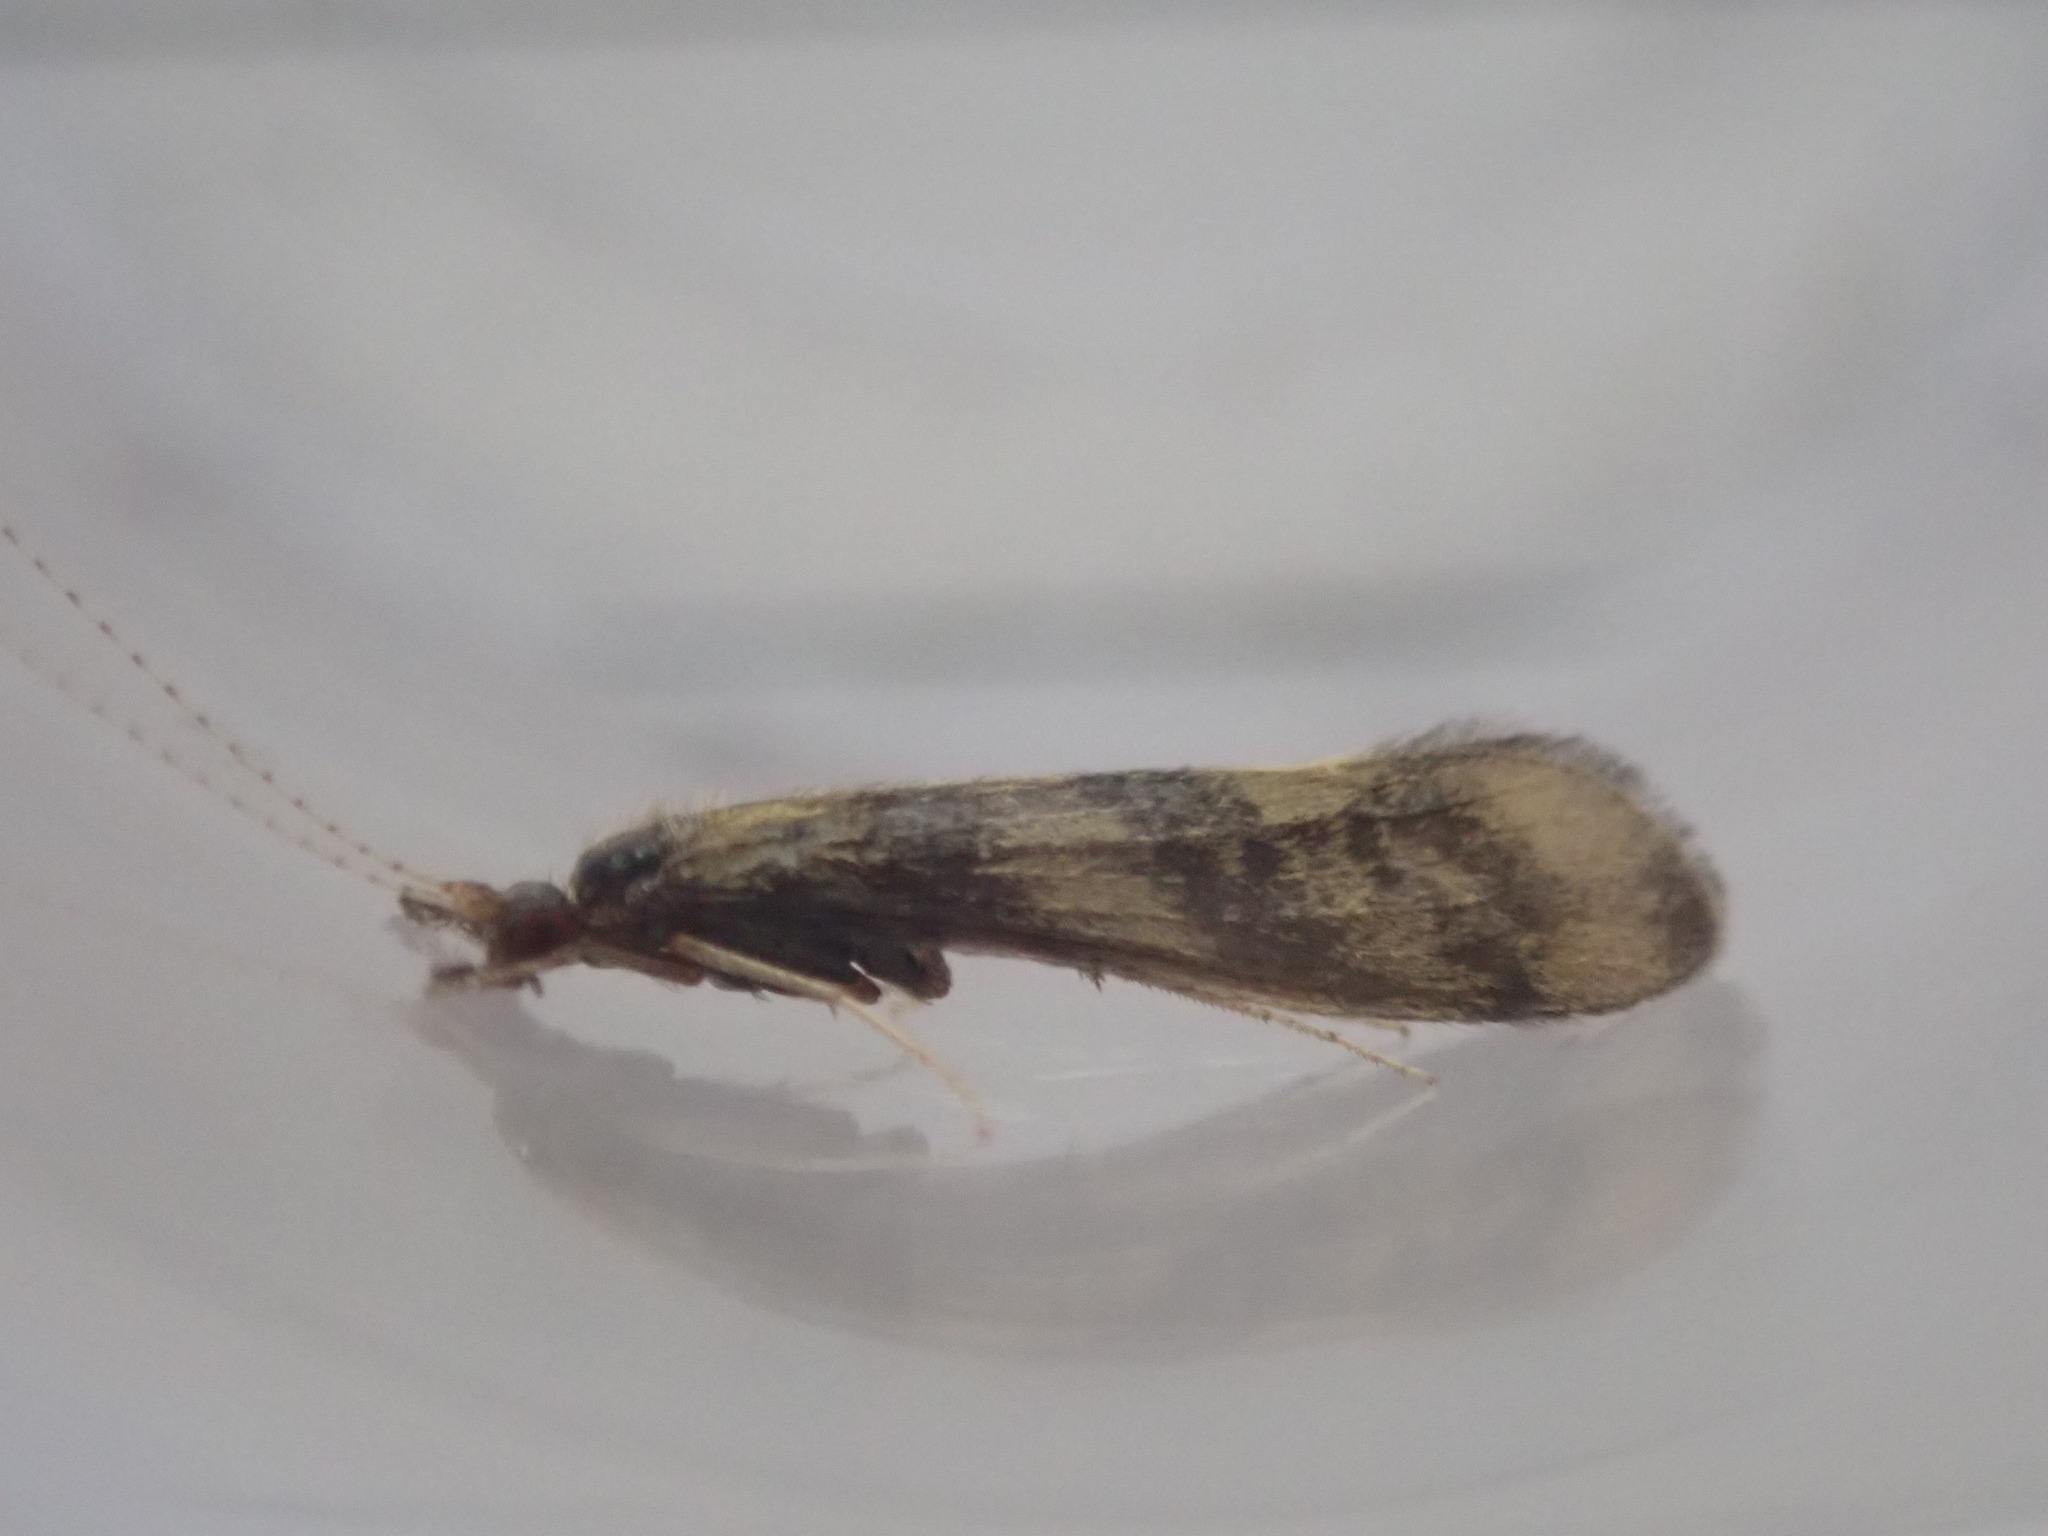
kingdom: Animalia
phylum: Arthropoda
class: Insecta
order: Trichoptera
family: Leptoceridae
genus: Mystacides
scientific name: Mystacides longicornis
